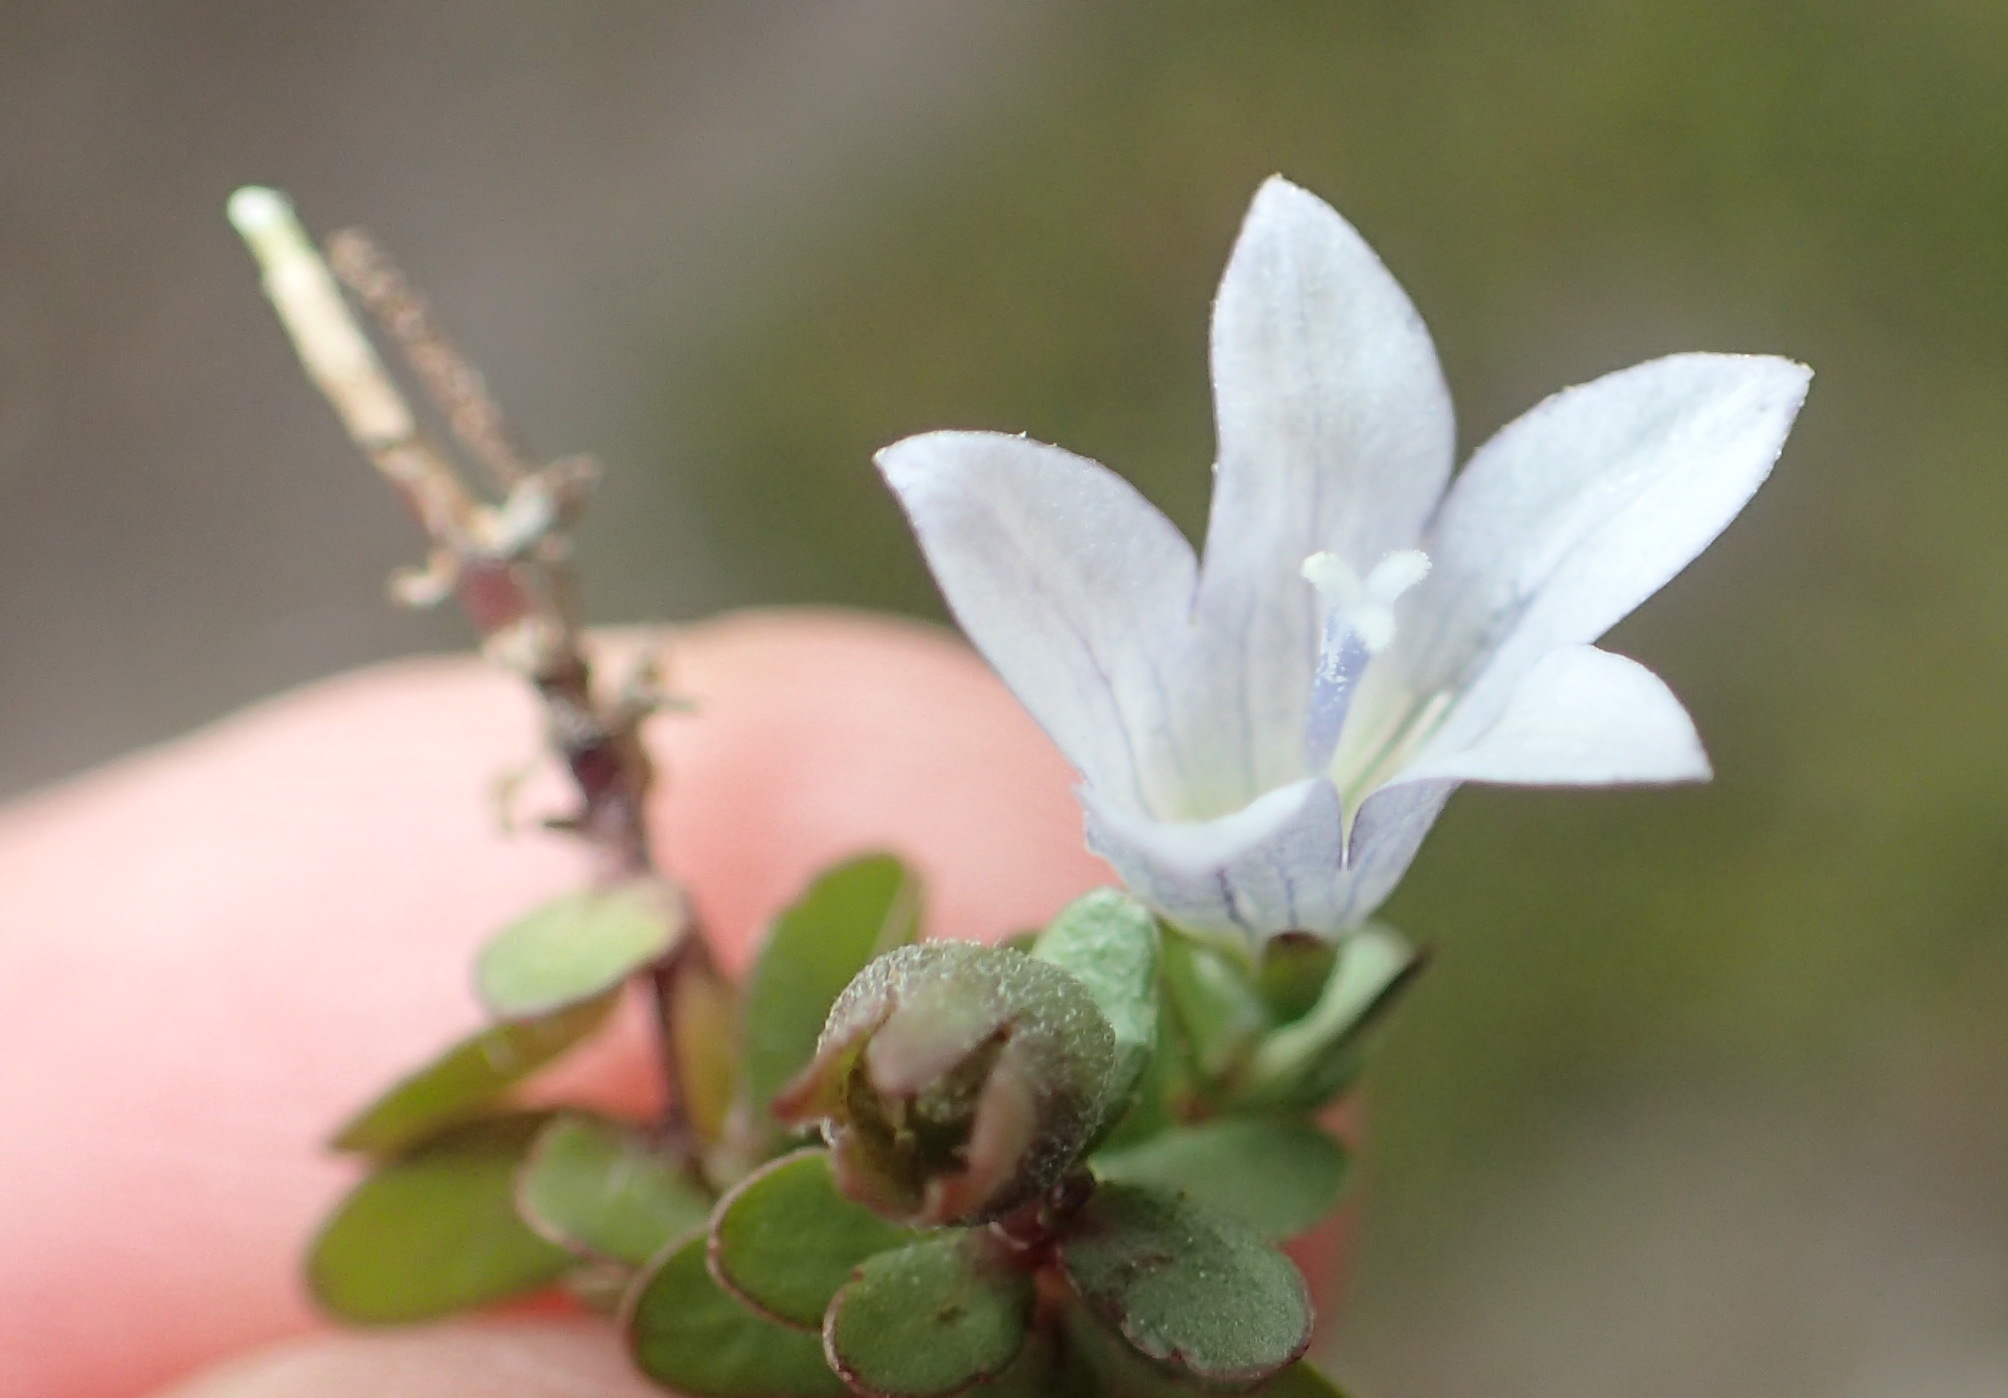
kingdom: Plantae
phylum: Tracheophyta
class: Magnoliopsida
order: Asterales
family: Campanulaceae
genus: Wahlenbergia
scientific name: Wahlenbergia procumbens
